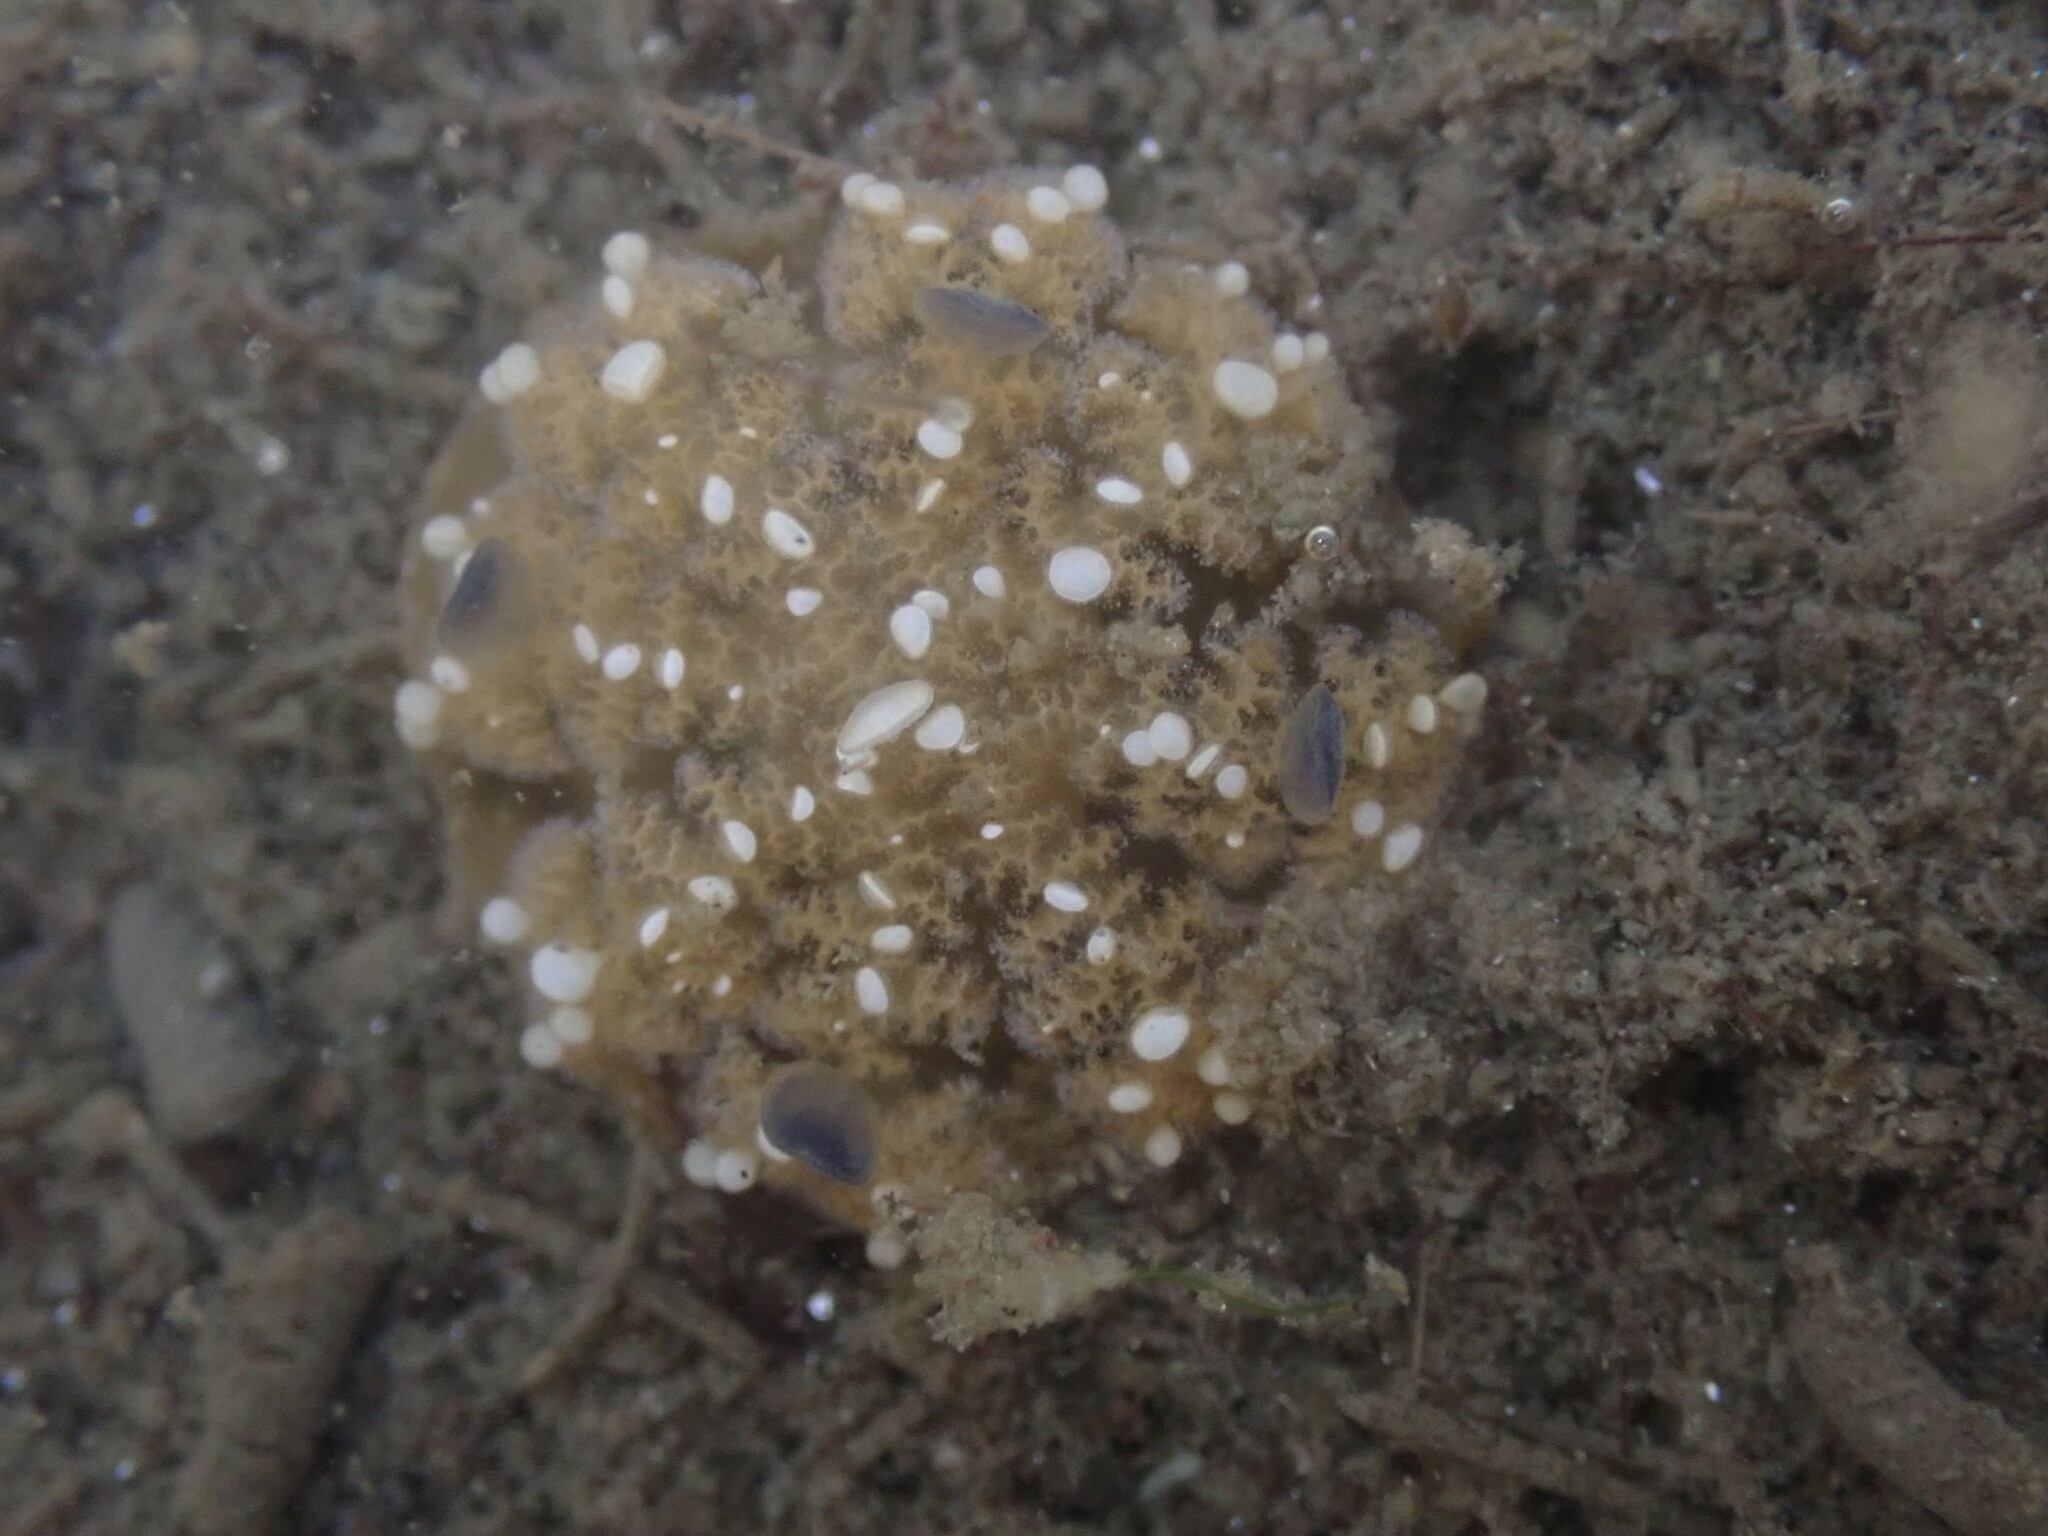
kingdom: Animalia
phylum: Cnidaria
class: Scyphozoa
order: Rhizostomeae
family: Cassiopeidae
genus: Cassiopea
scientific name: Cassiopea andromeda
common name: Upside-down jellyfish
